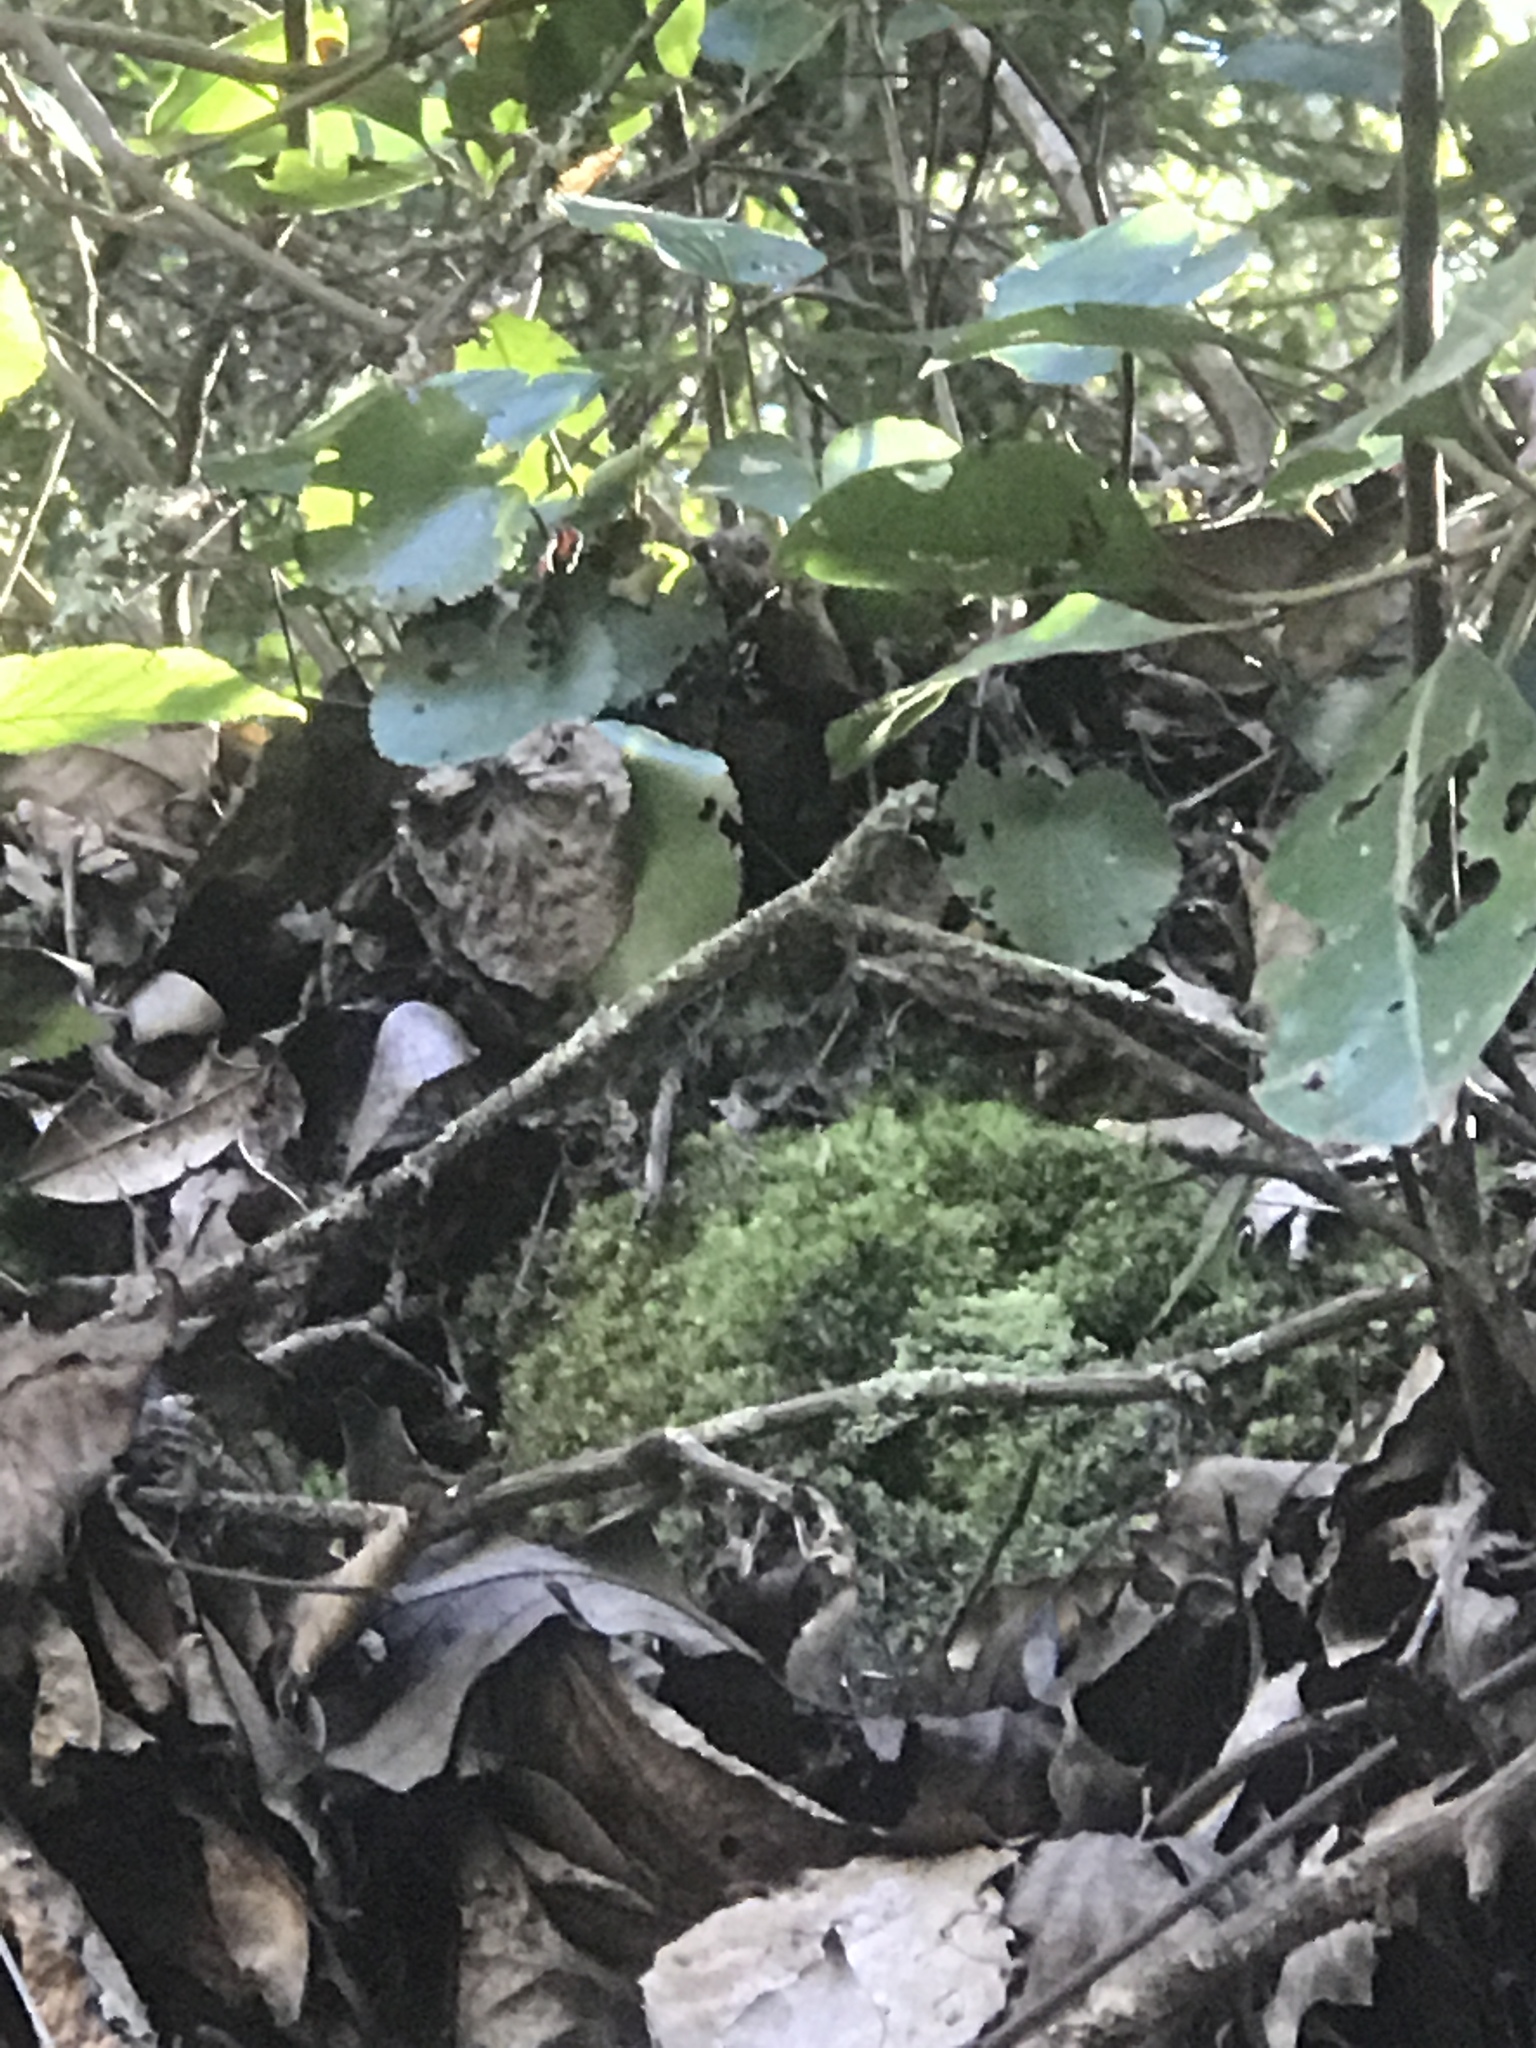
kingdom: Plantae
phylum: Tracheophyta
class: Magnoliopsida
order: Ericales
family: Diapensiaceae
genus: Galax
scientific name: Galax urceolata
